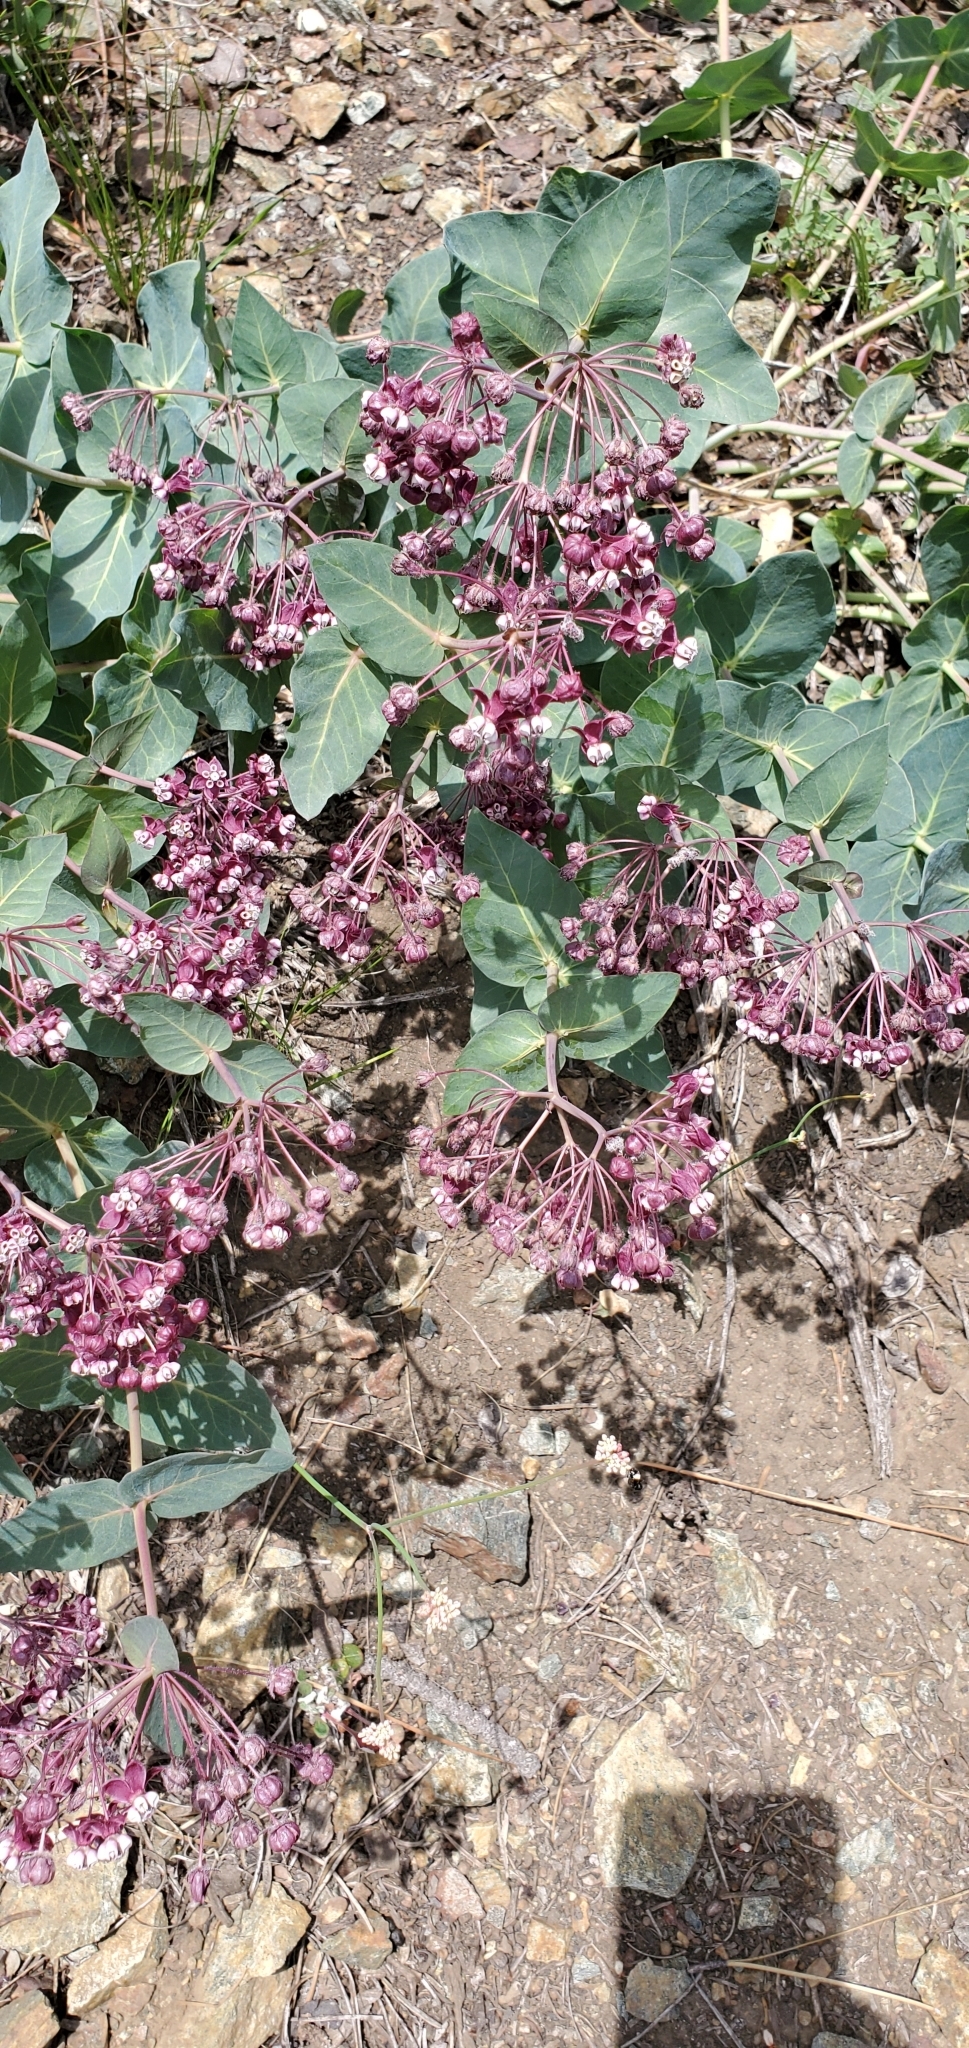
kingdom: Plantae
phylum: Tracheophyta
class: Magnoliopsida
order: Gentianales
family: Apocynaceae
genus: Asclepias
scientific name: Asclepias cordifolia
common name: Purple milkweed
